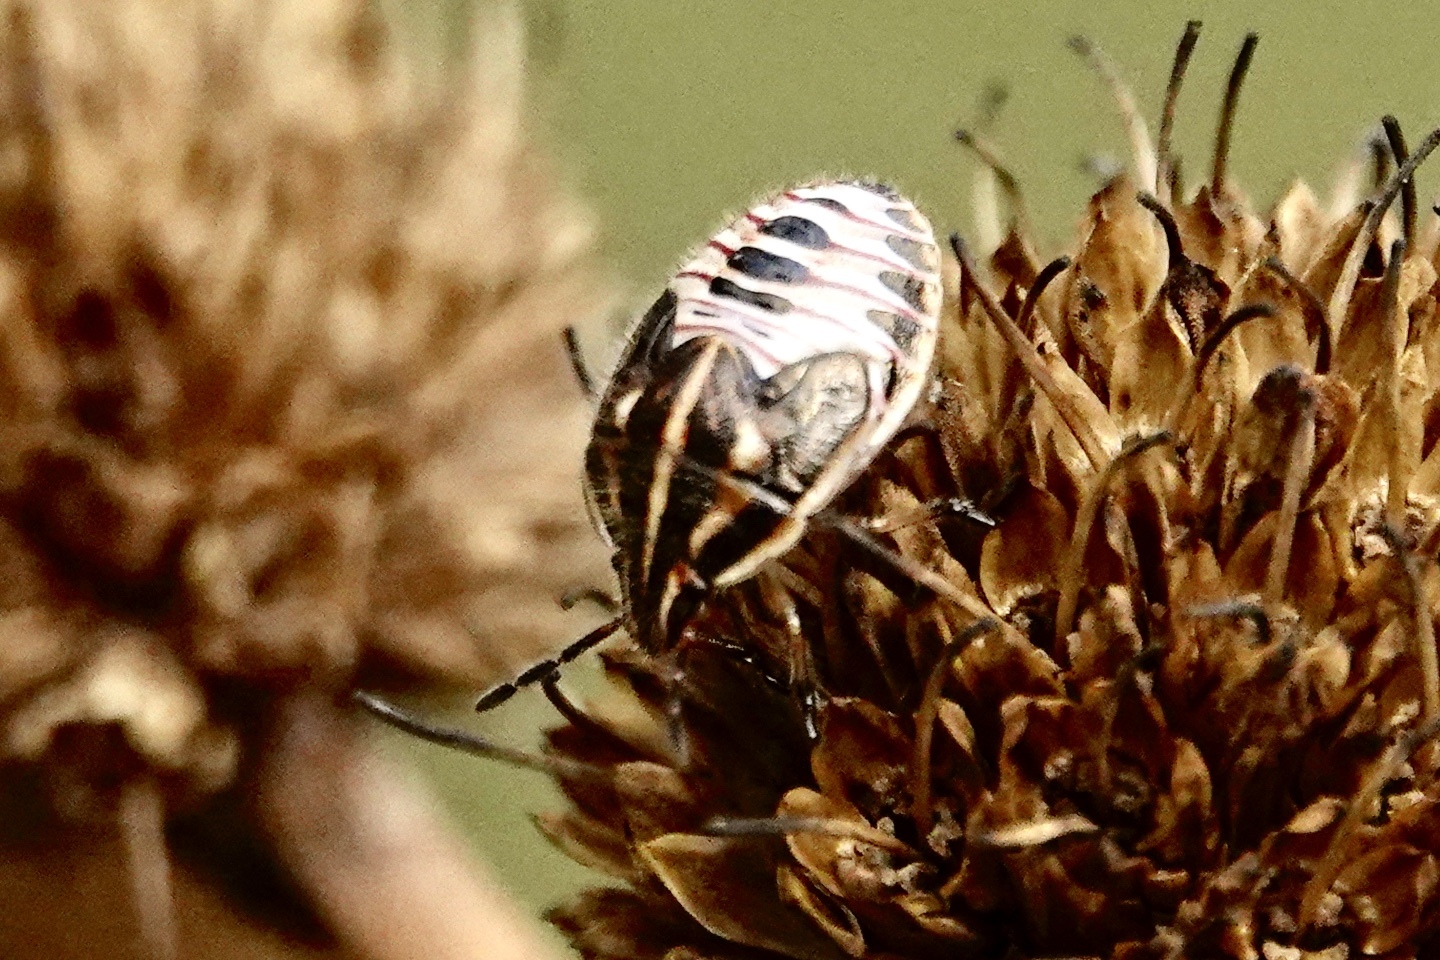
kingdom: Animalia
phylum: Arthropoda
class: Insecta
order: Hemiptera
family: Pentatomidae
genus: Trichopepla
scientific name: Trichopepla semivittata
